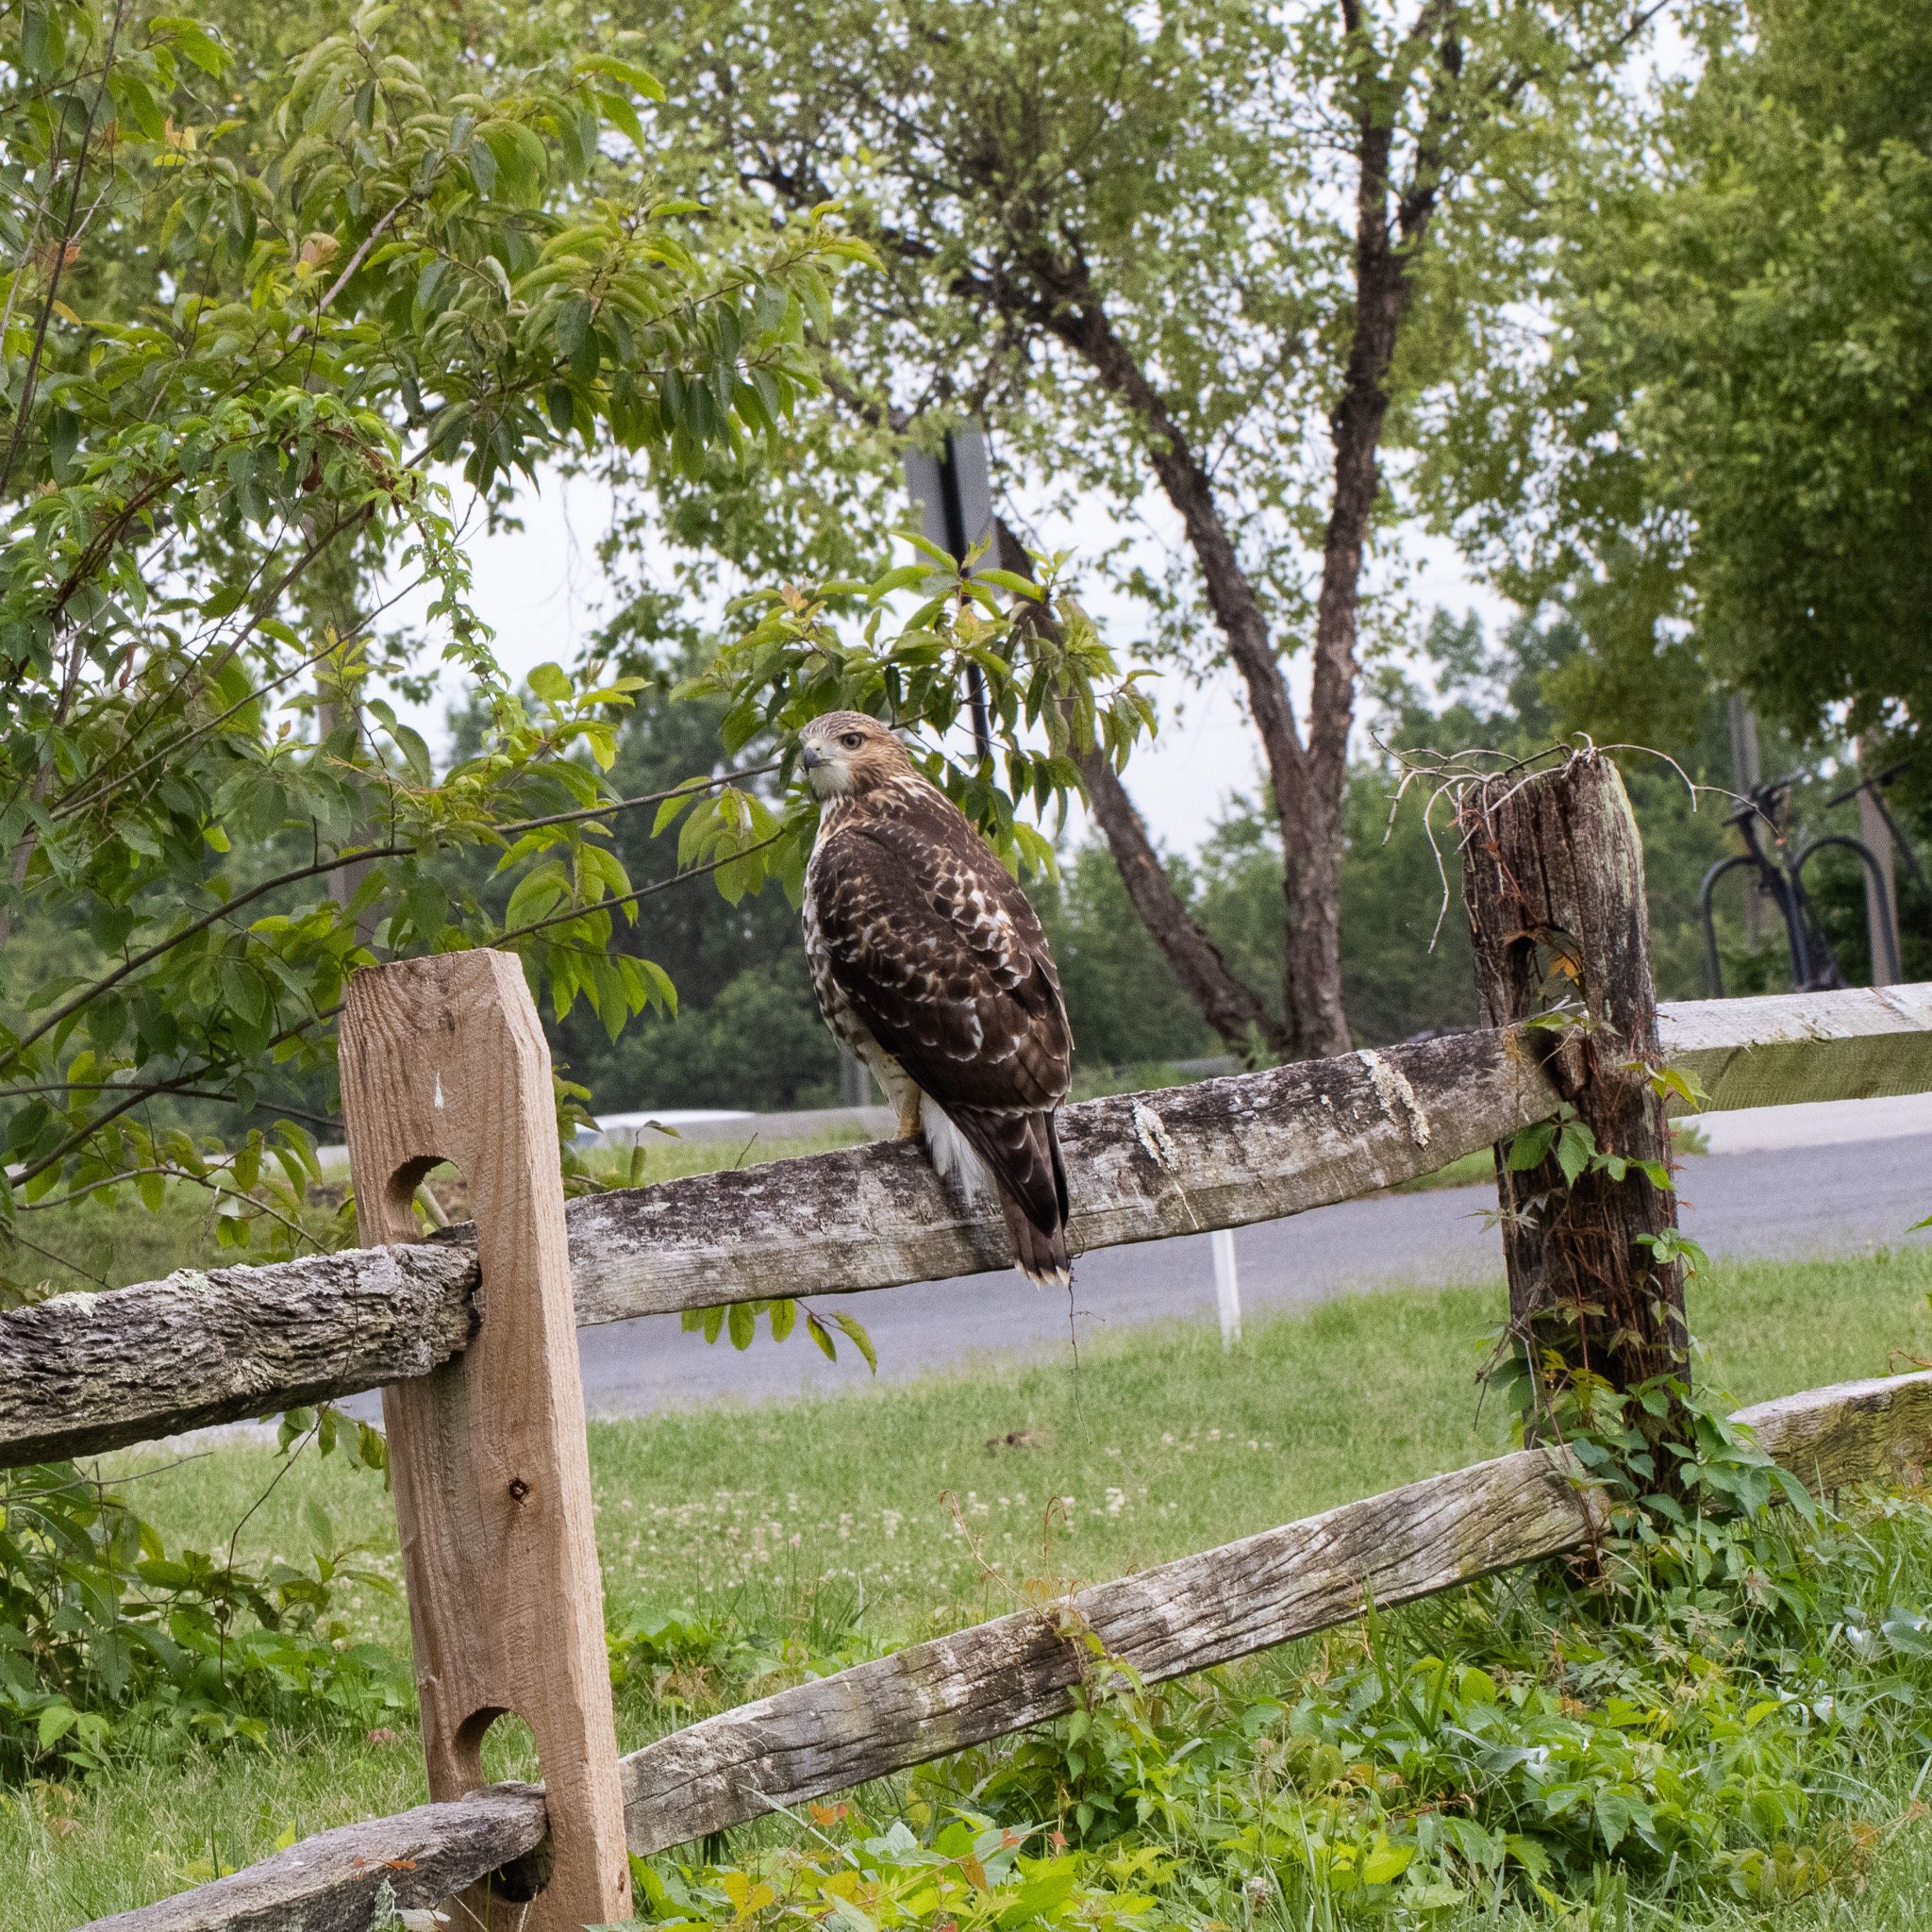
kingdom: Animalia
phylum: Chordata
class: Aves
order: Accipitriformes
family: Accipitridae
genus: Buteo
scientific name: Buteo jamaicensis
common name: Red-tailed hawk
